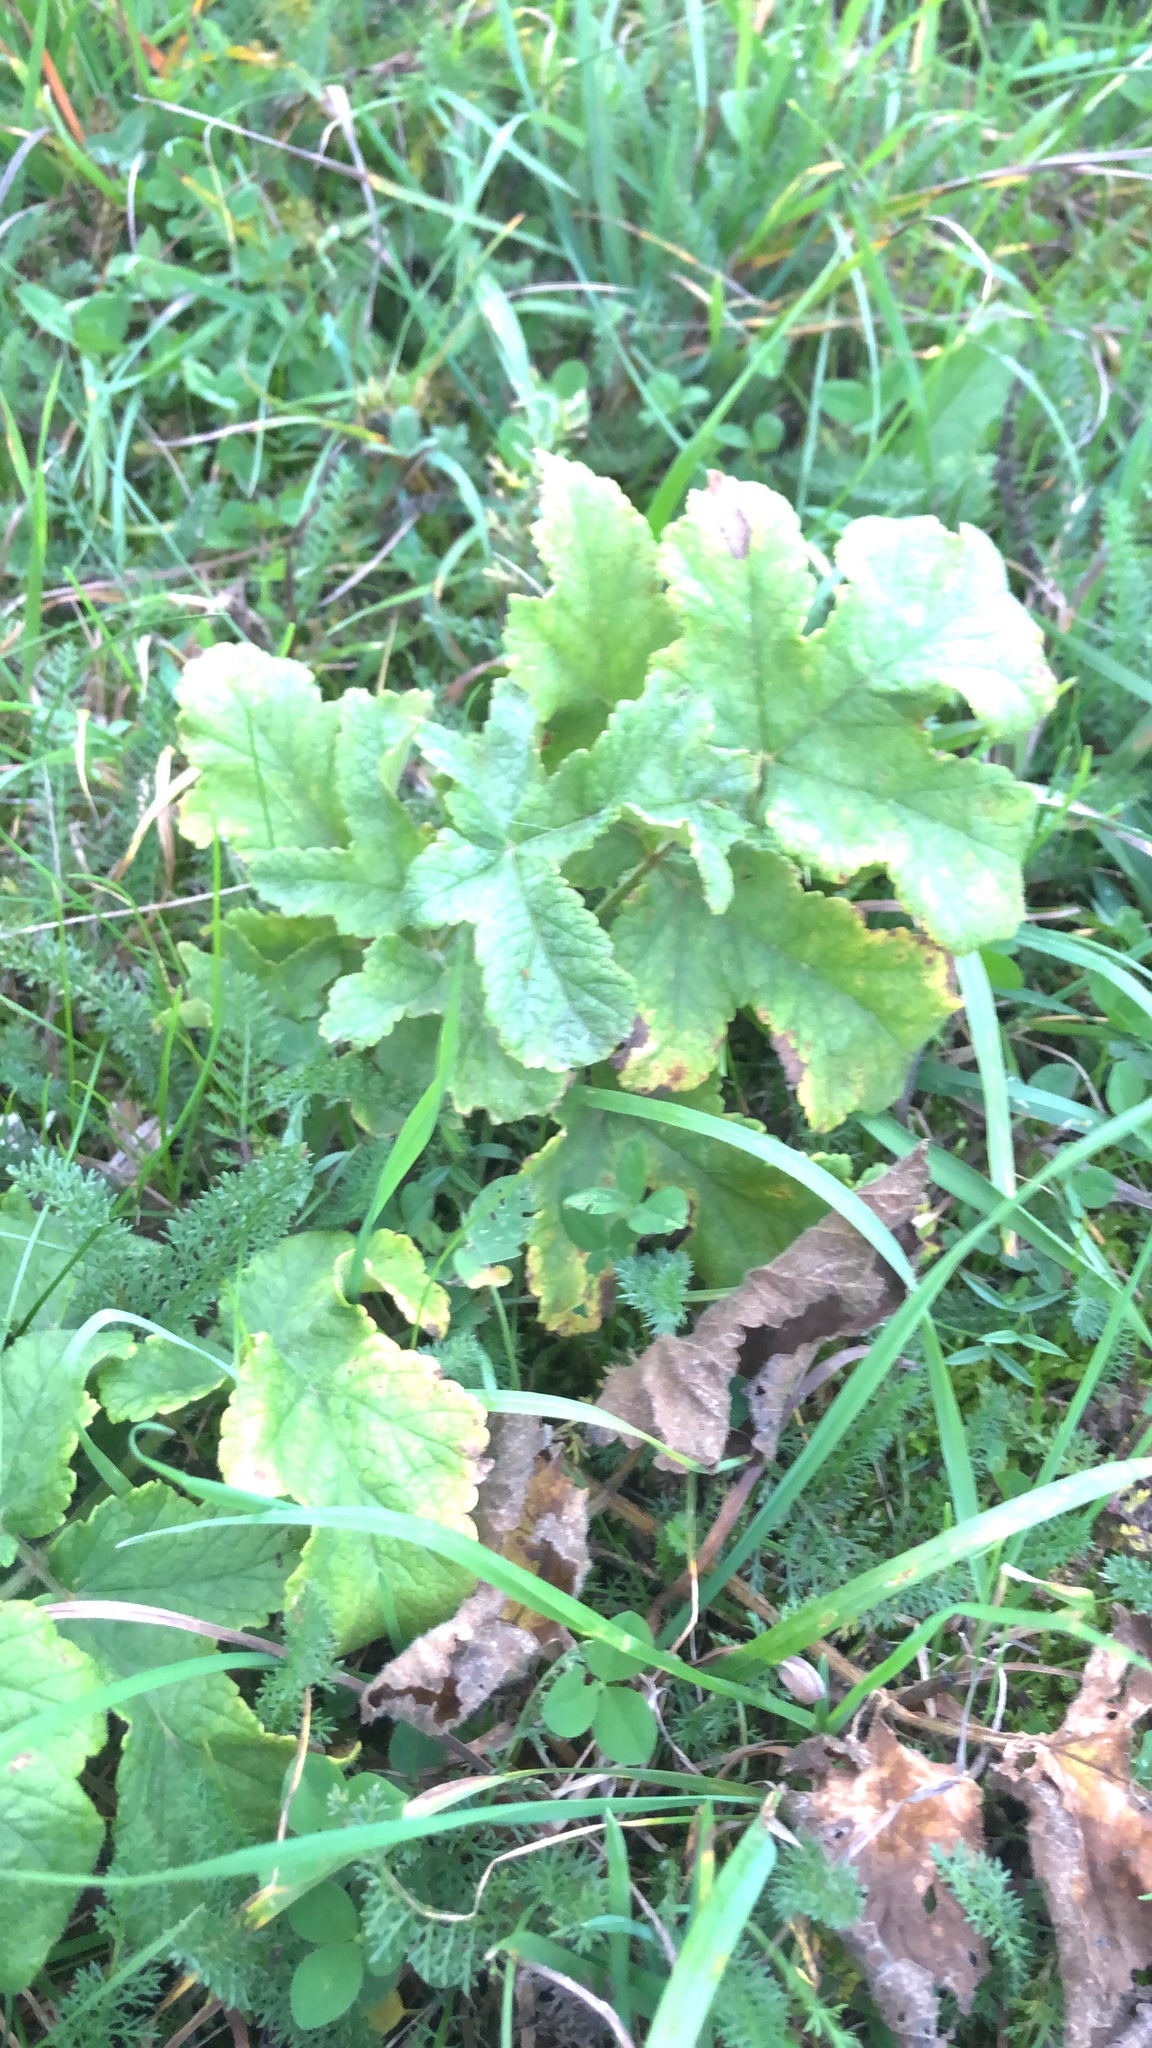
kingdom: Plantae
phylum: Tracheophyta
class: Magnoliopsida
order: Apiales
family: Apiaceae
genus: Heracleum
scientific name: Heracleum sphondylium
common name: Hogweed
